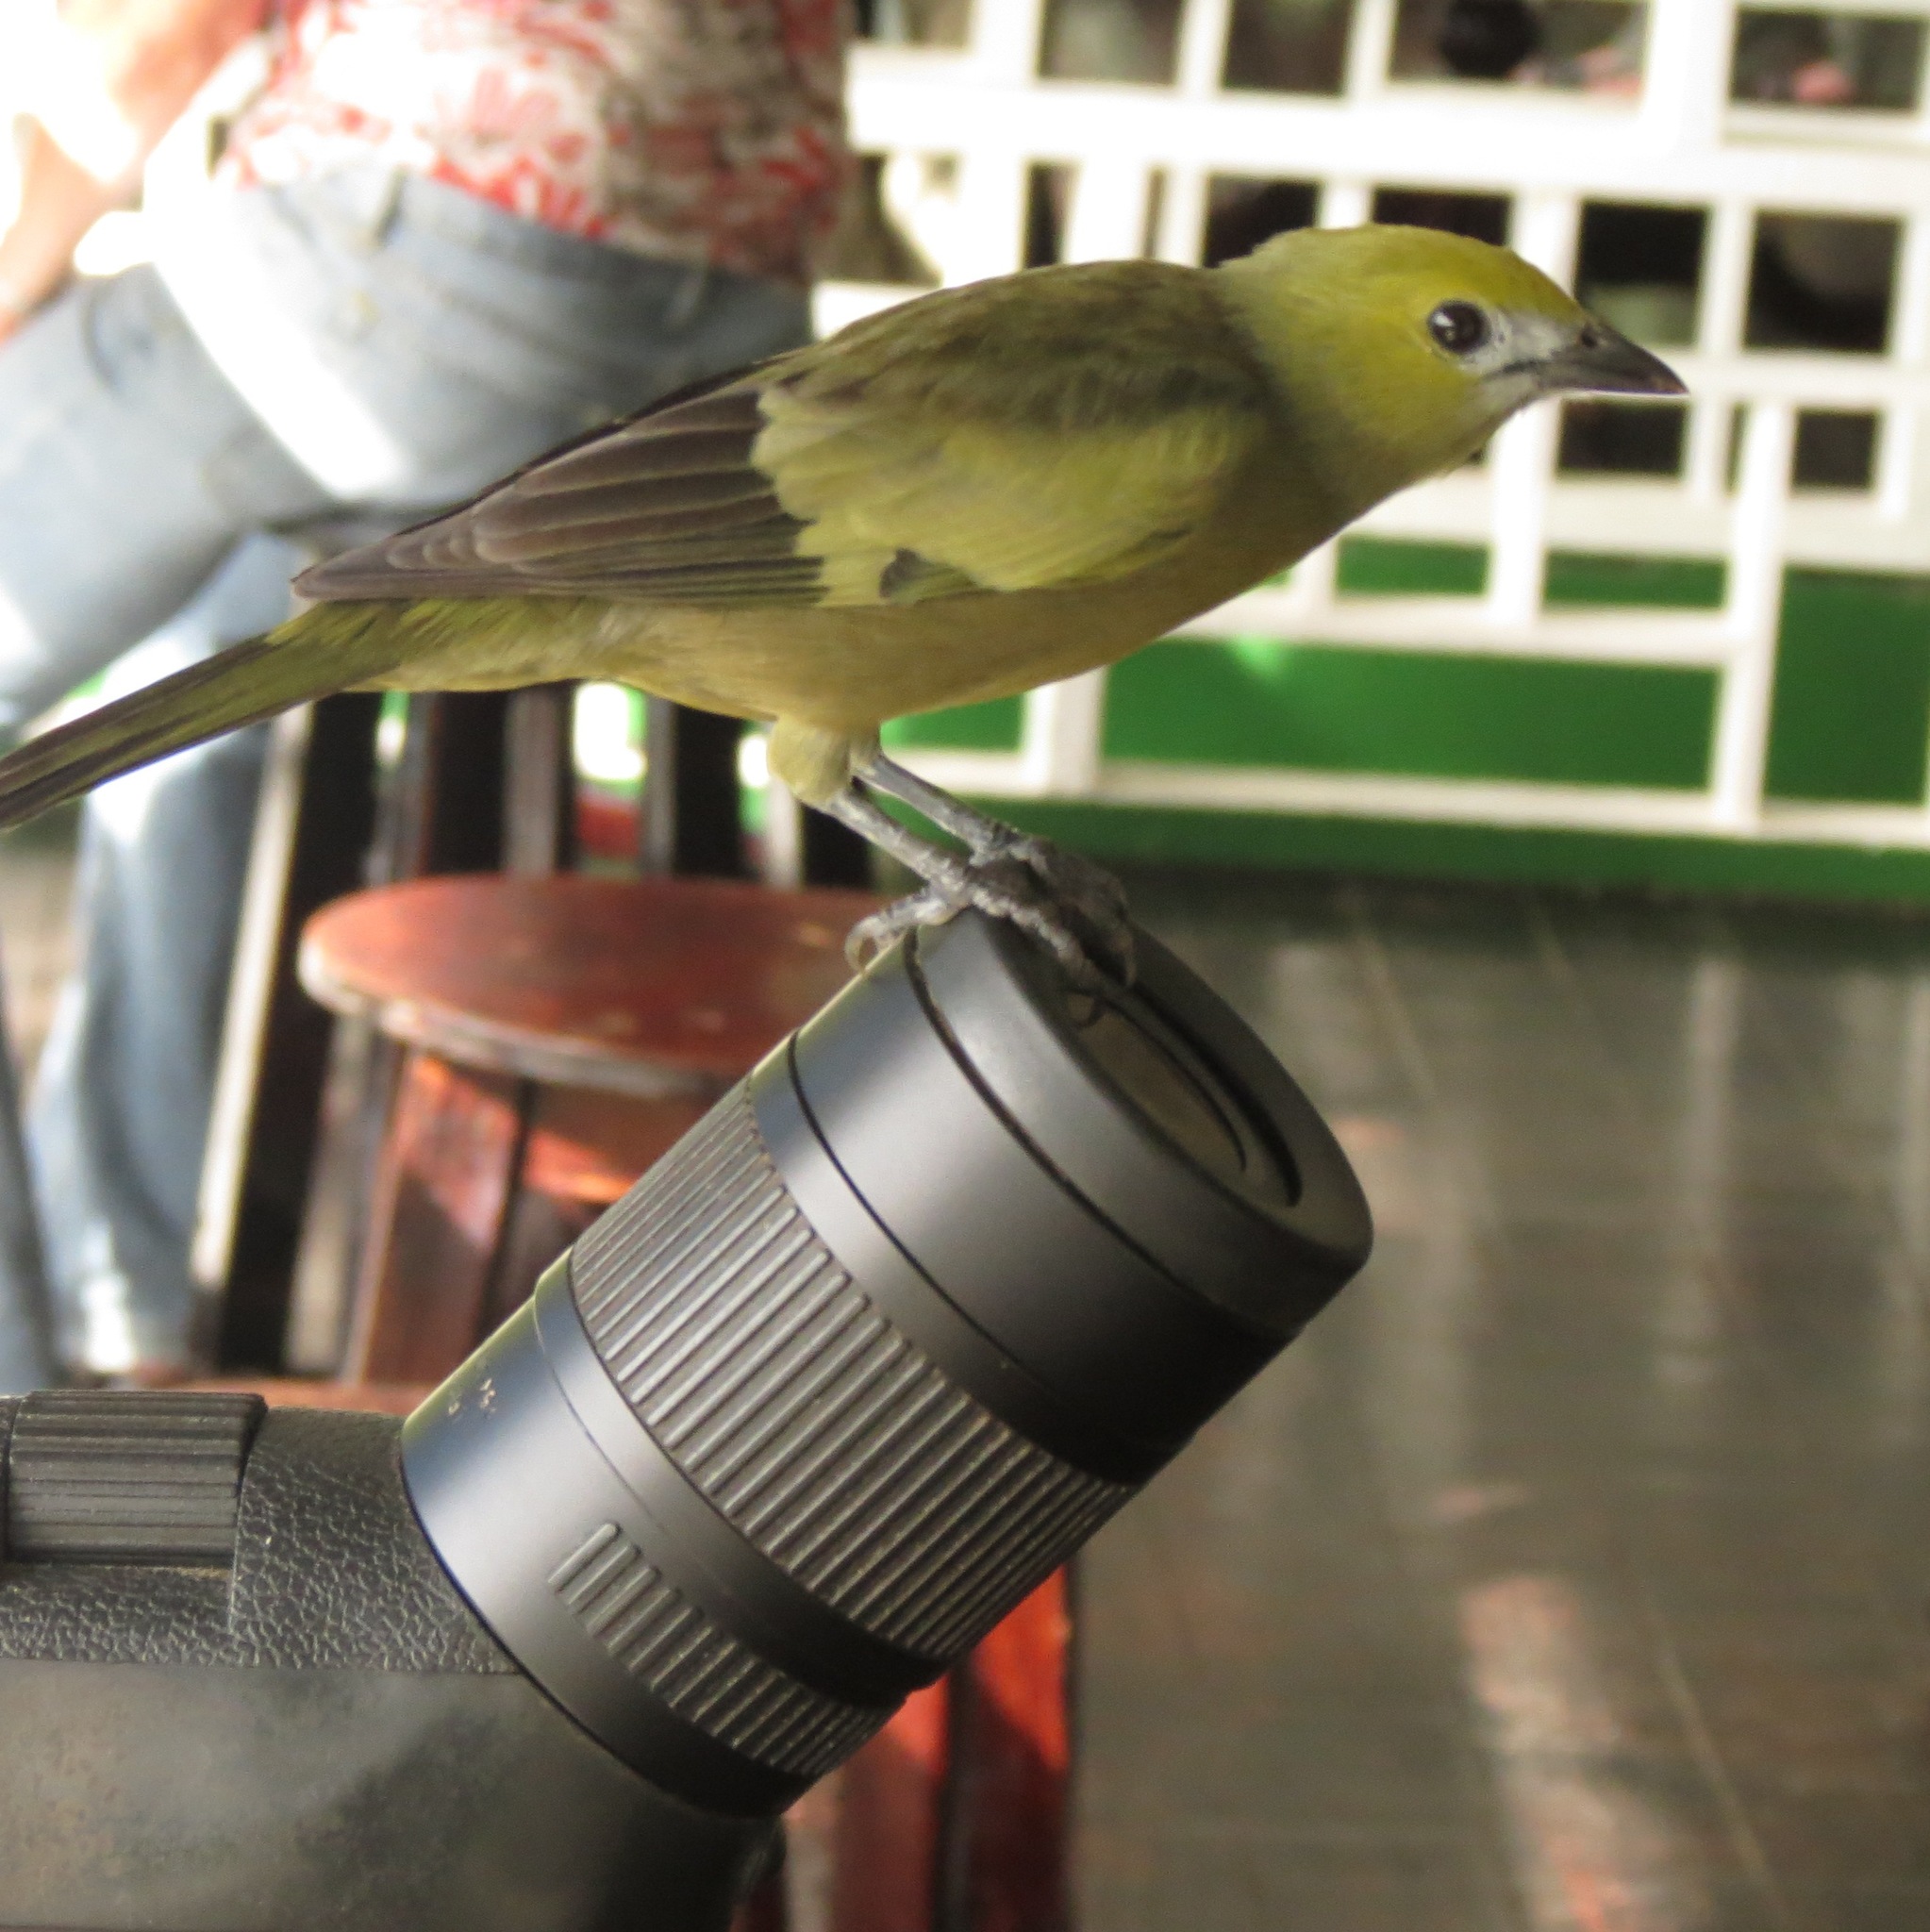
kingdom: Animalia
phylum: Chordata
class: Aves
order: Passeriformes
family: Thraupidae
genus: Thraupis
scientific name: Thraupis palmarum
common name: Palm tanager
